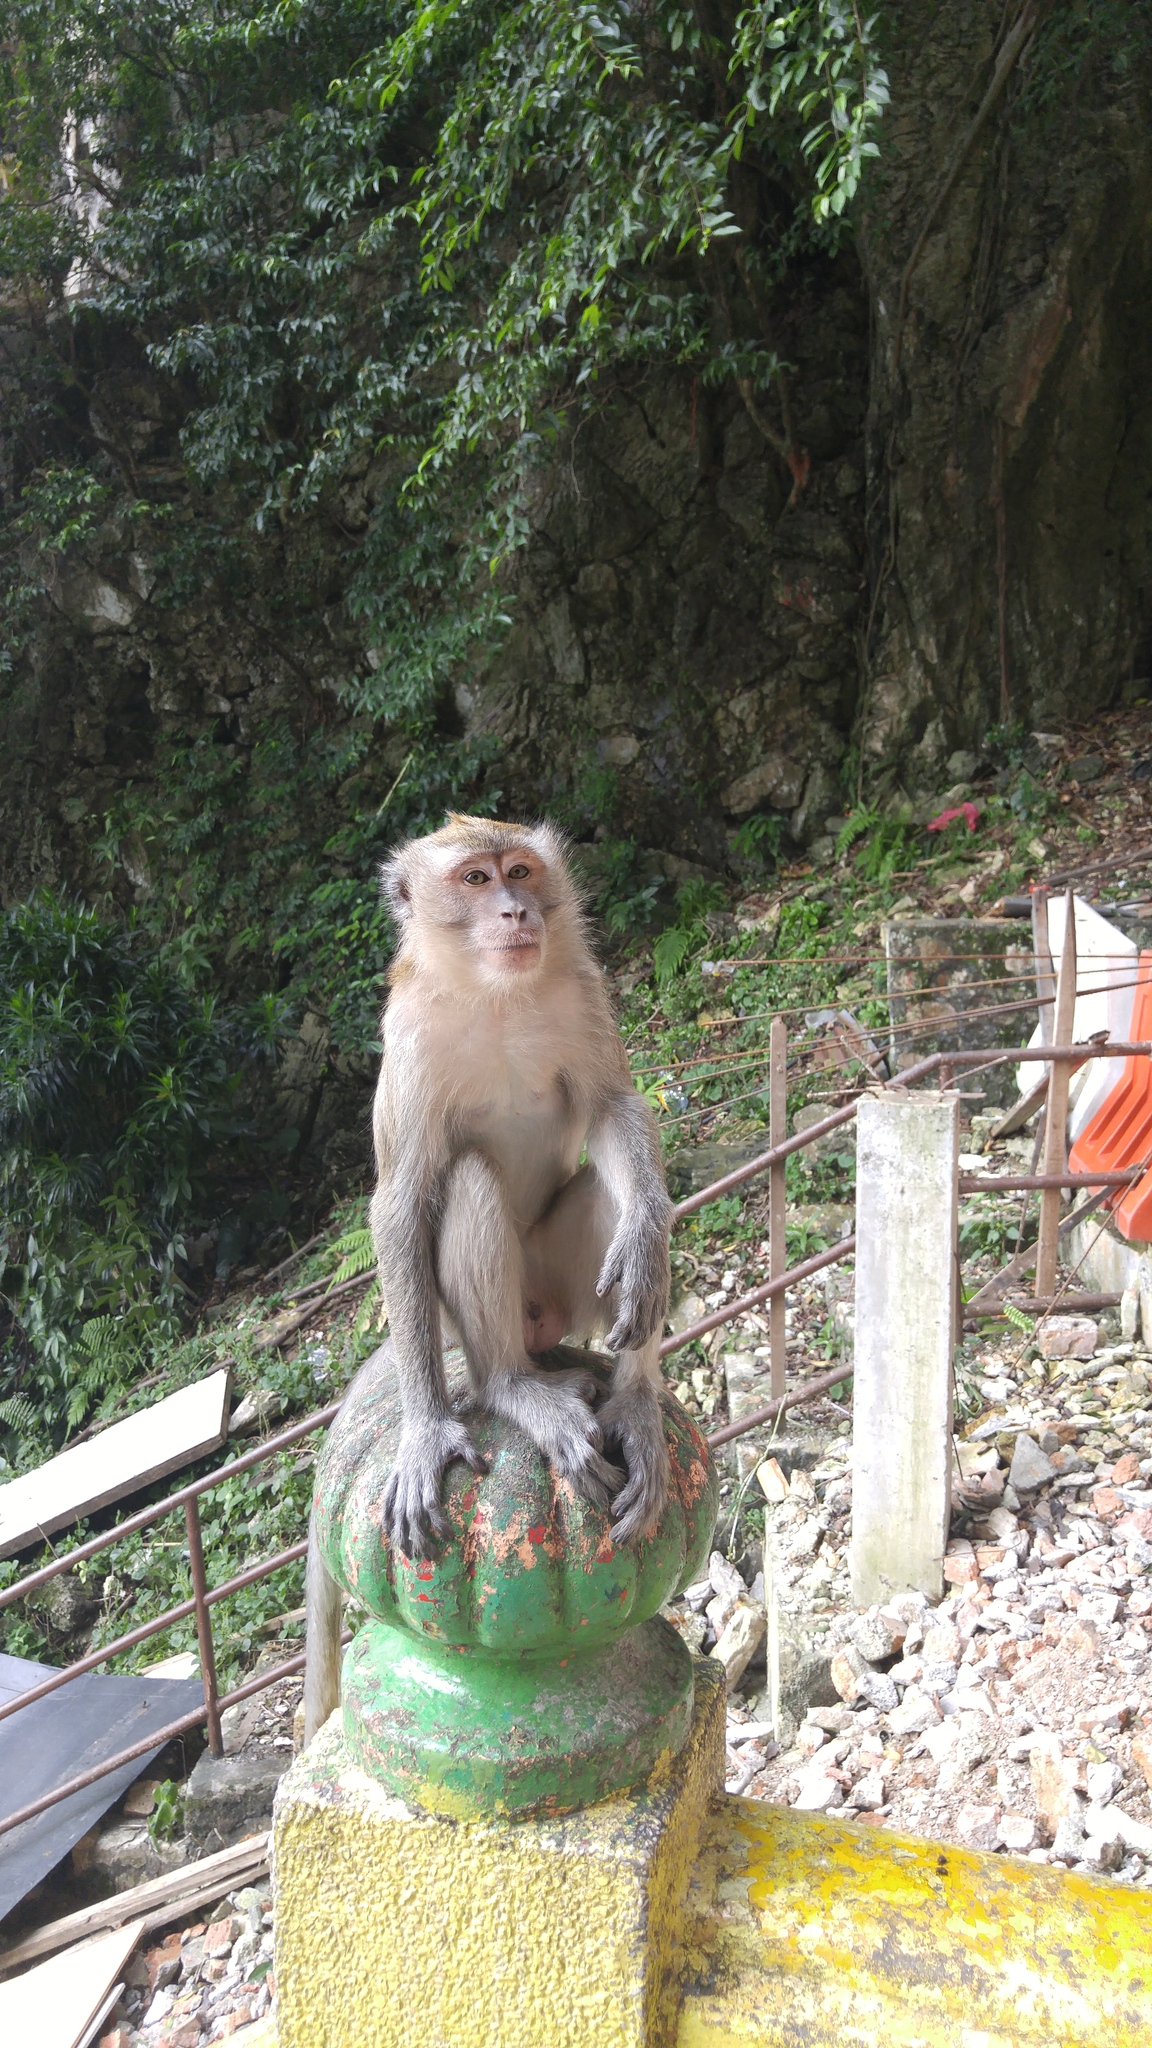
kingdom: Animalia
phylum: Chordata
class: Mammalia
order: Primates
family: Cercopithecidae
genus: Macaca
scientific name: Macaca fascicularis
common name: Crab-eating macaque
